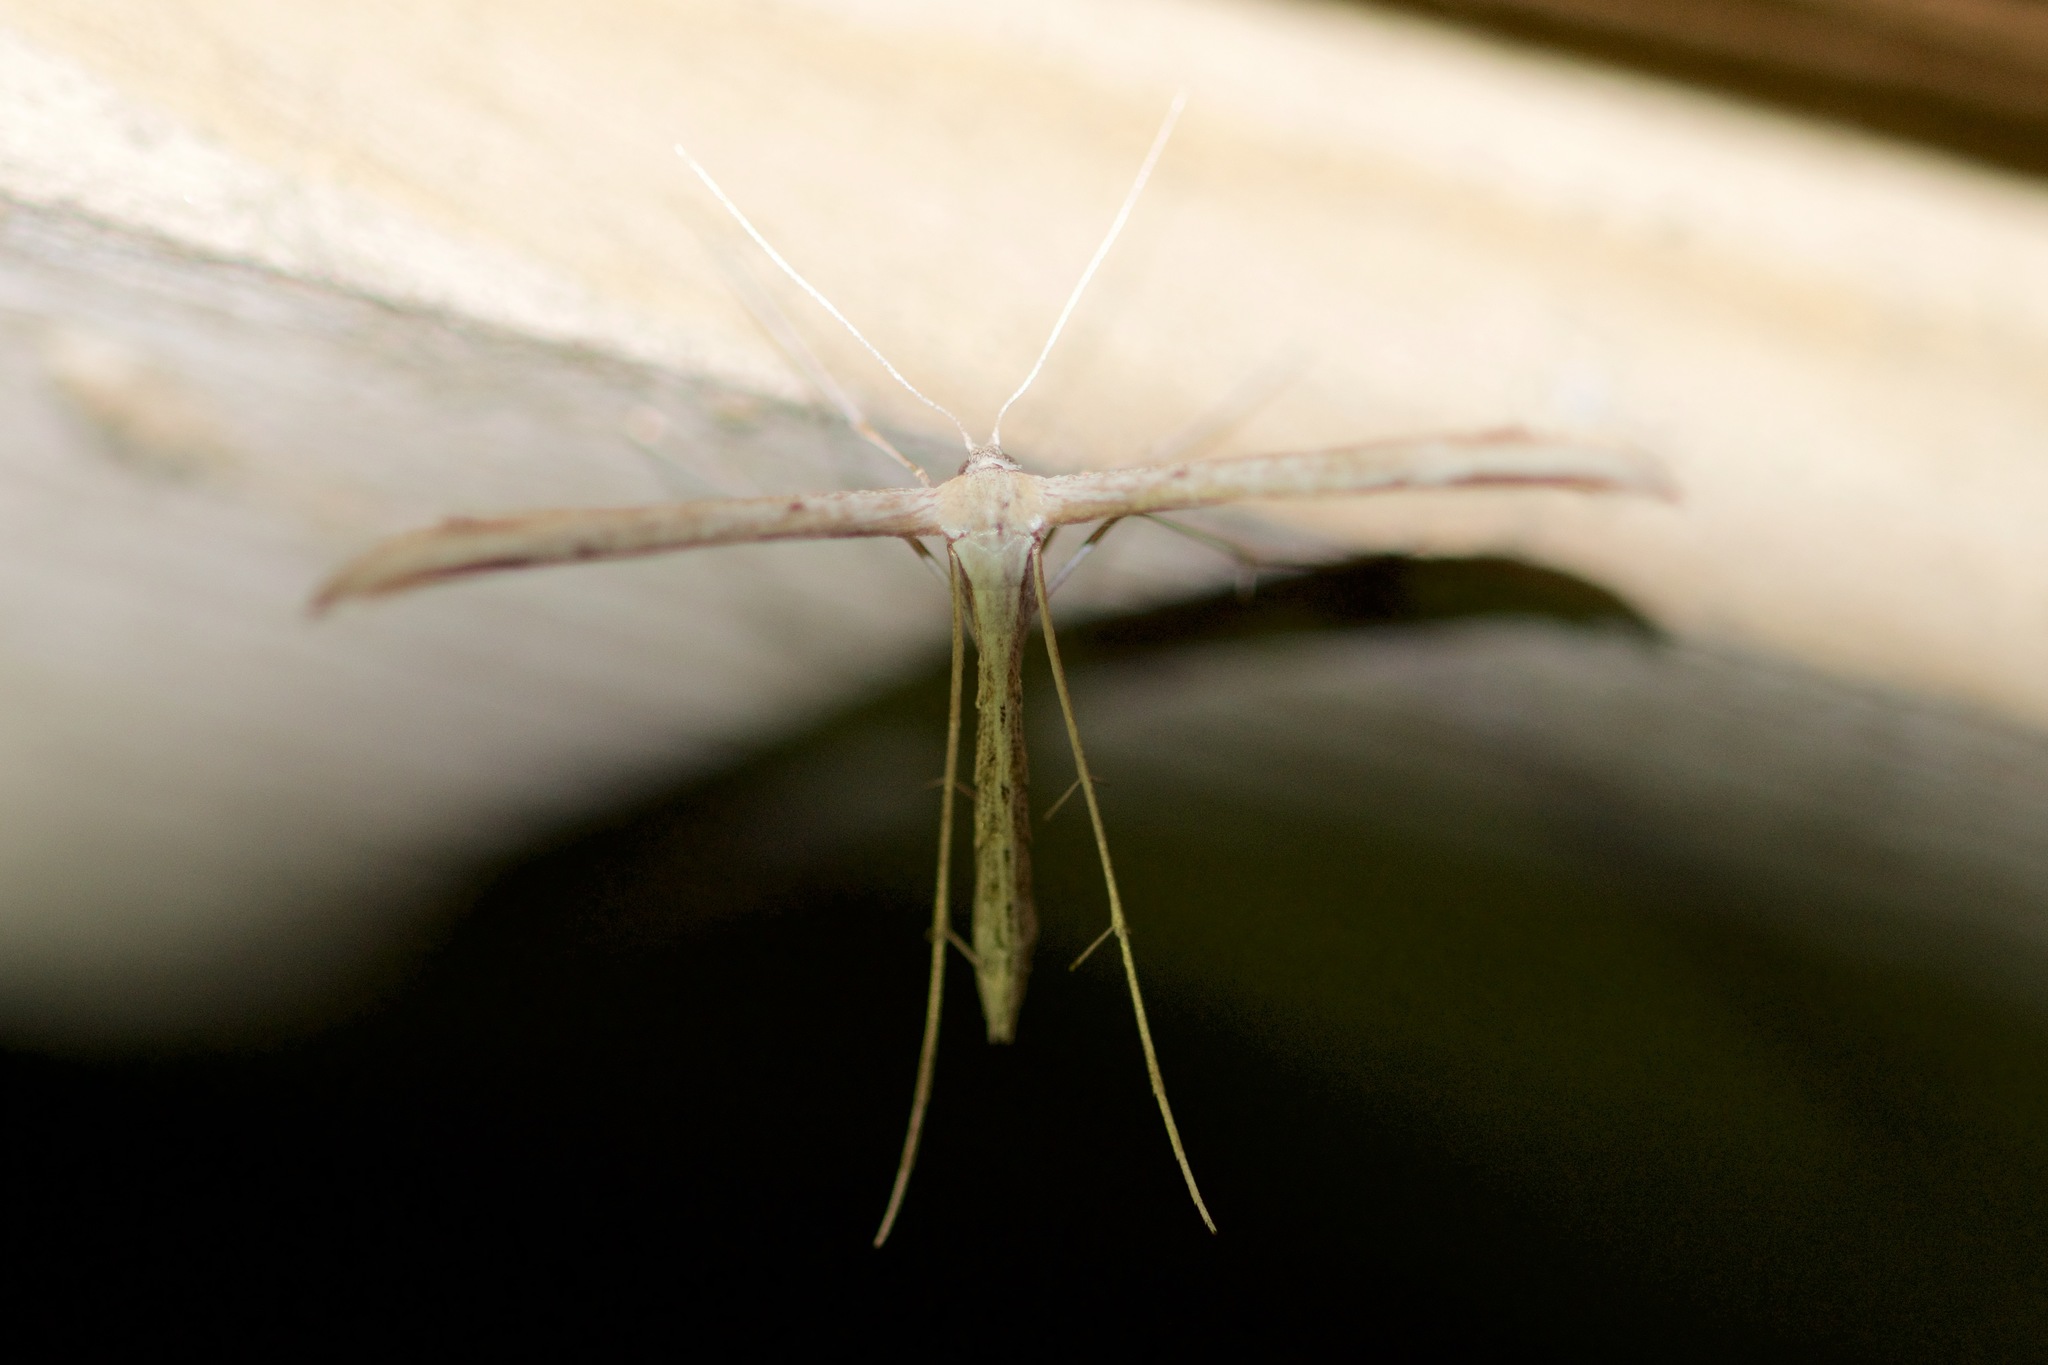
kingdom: Animalia
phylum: Arthropoda
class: Insecta
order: Lepidoptera
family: Pterophoridae
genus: Emmelina
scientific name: Emmelina monodactyla
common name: Common plume
